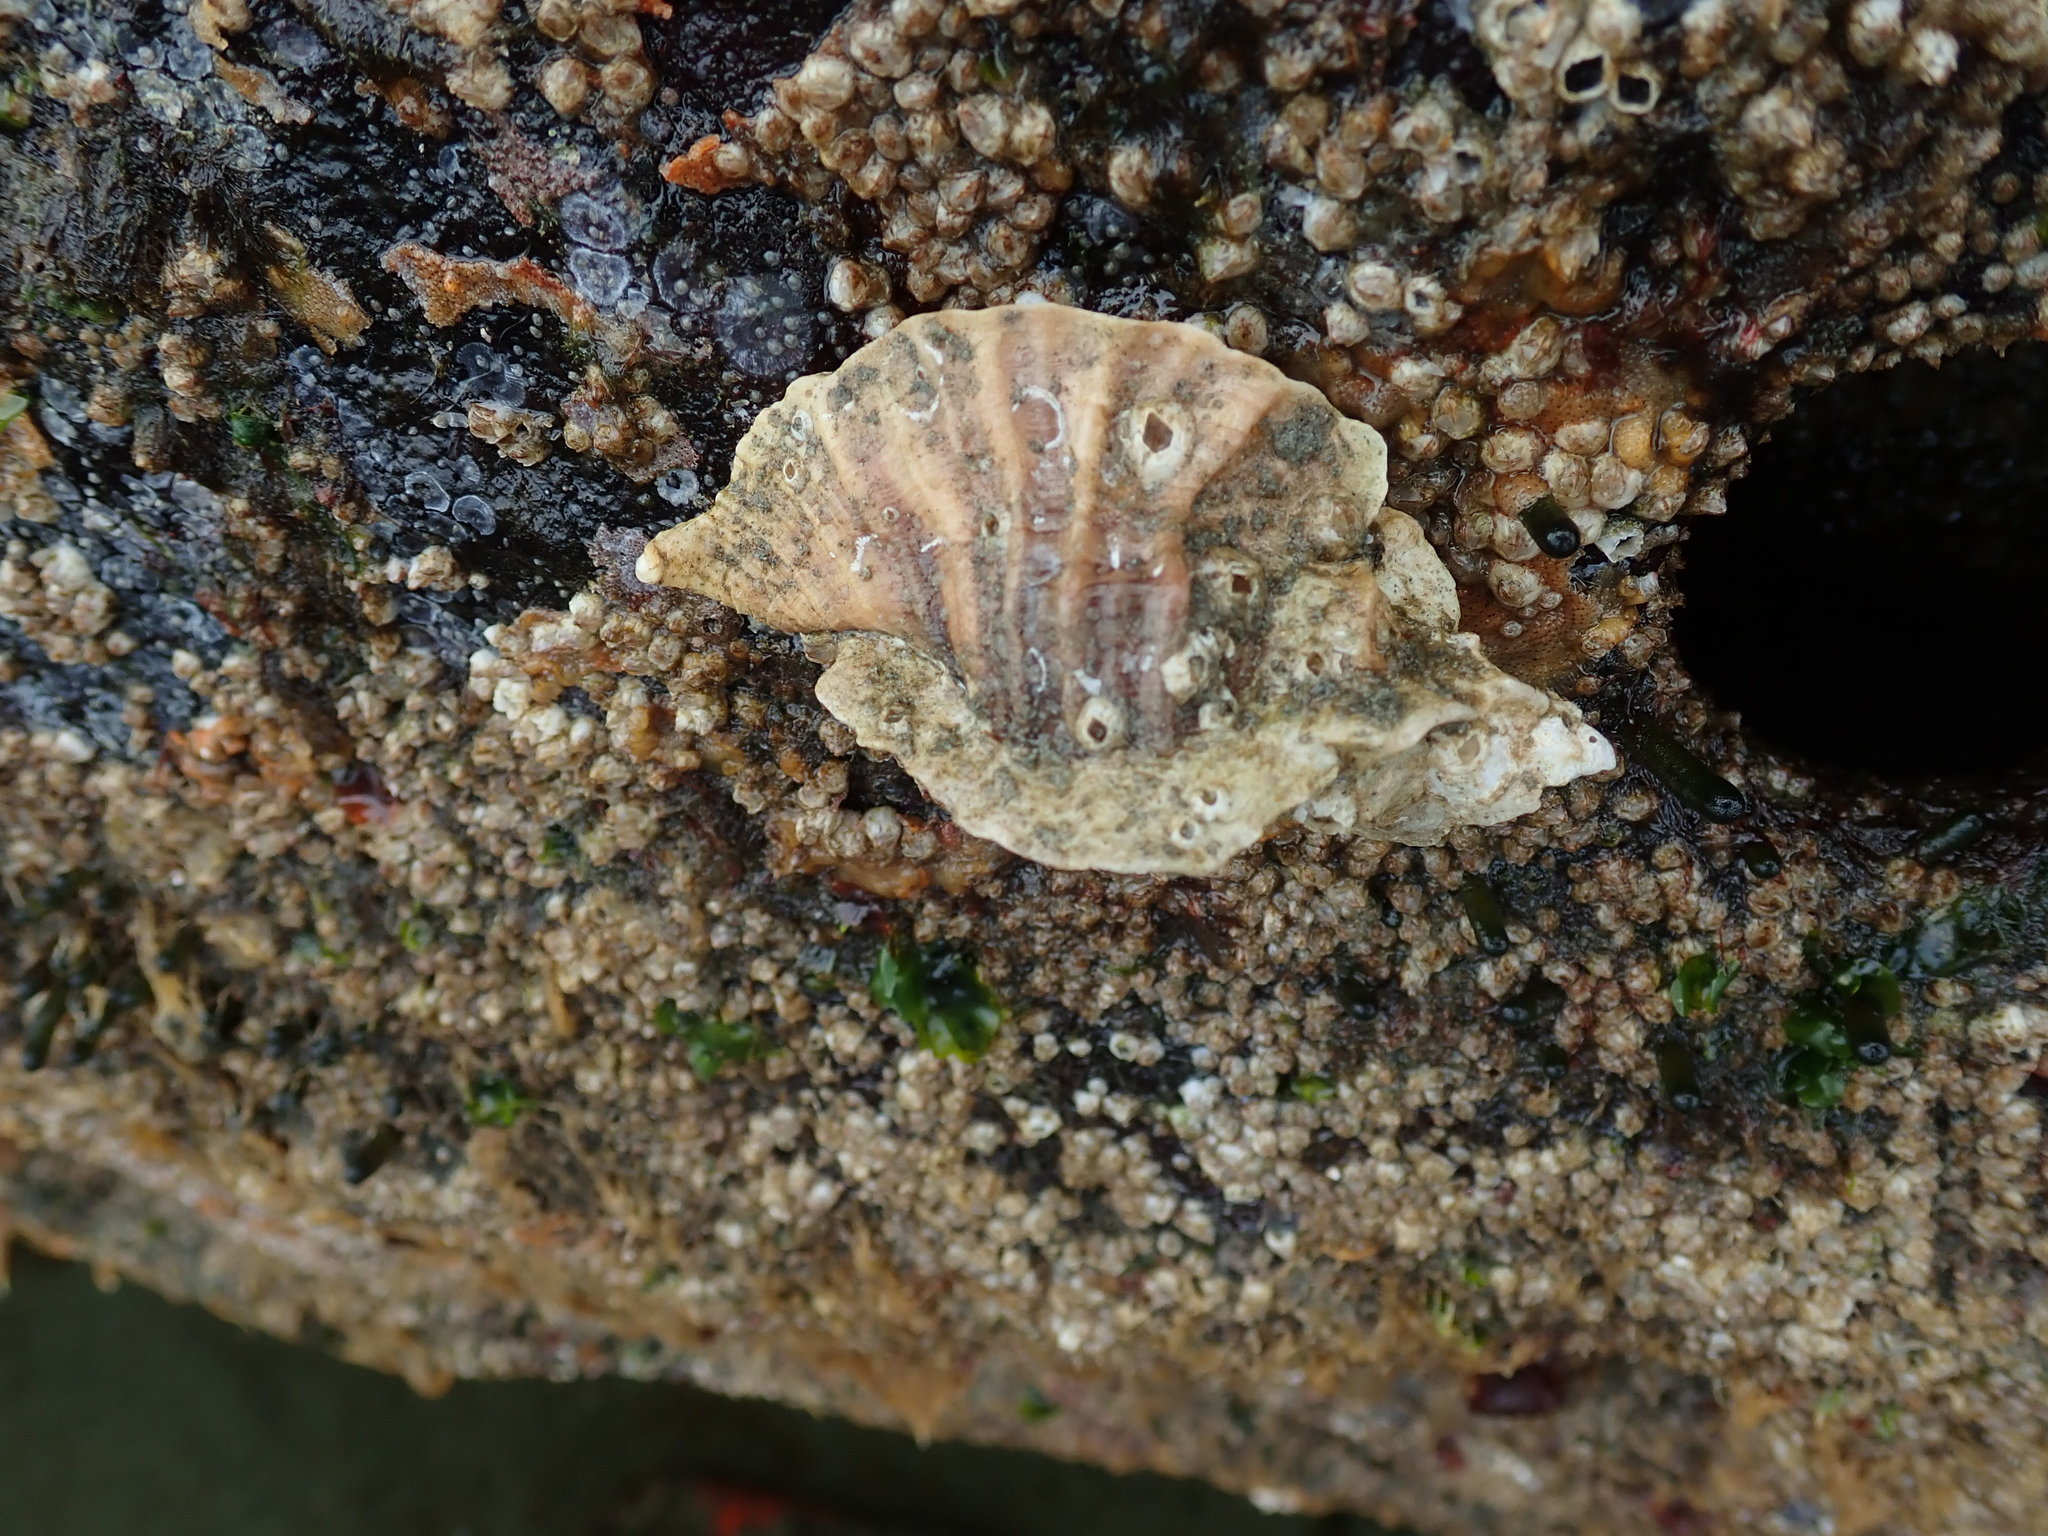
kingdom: Animalia
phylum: Mollusca
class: Gastropoda
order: Neogastropoda
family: Muricidae
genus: Ceratostoma
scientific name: Ceratostoma foliatum
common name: Foliate thorn purpura
